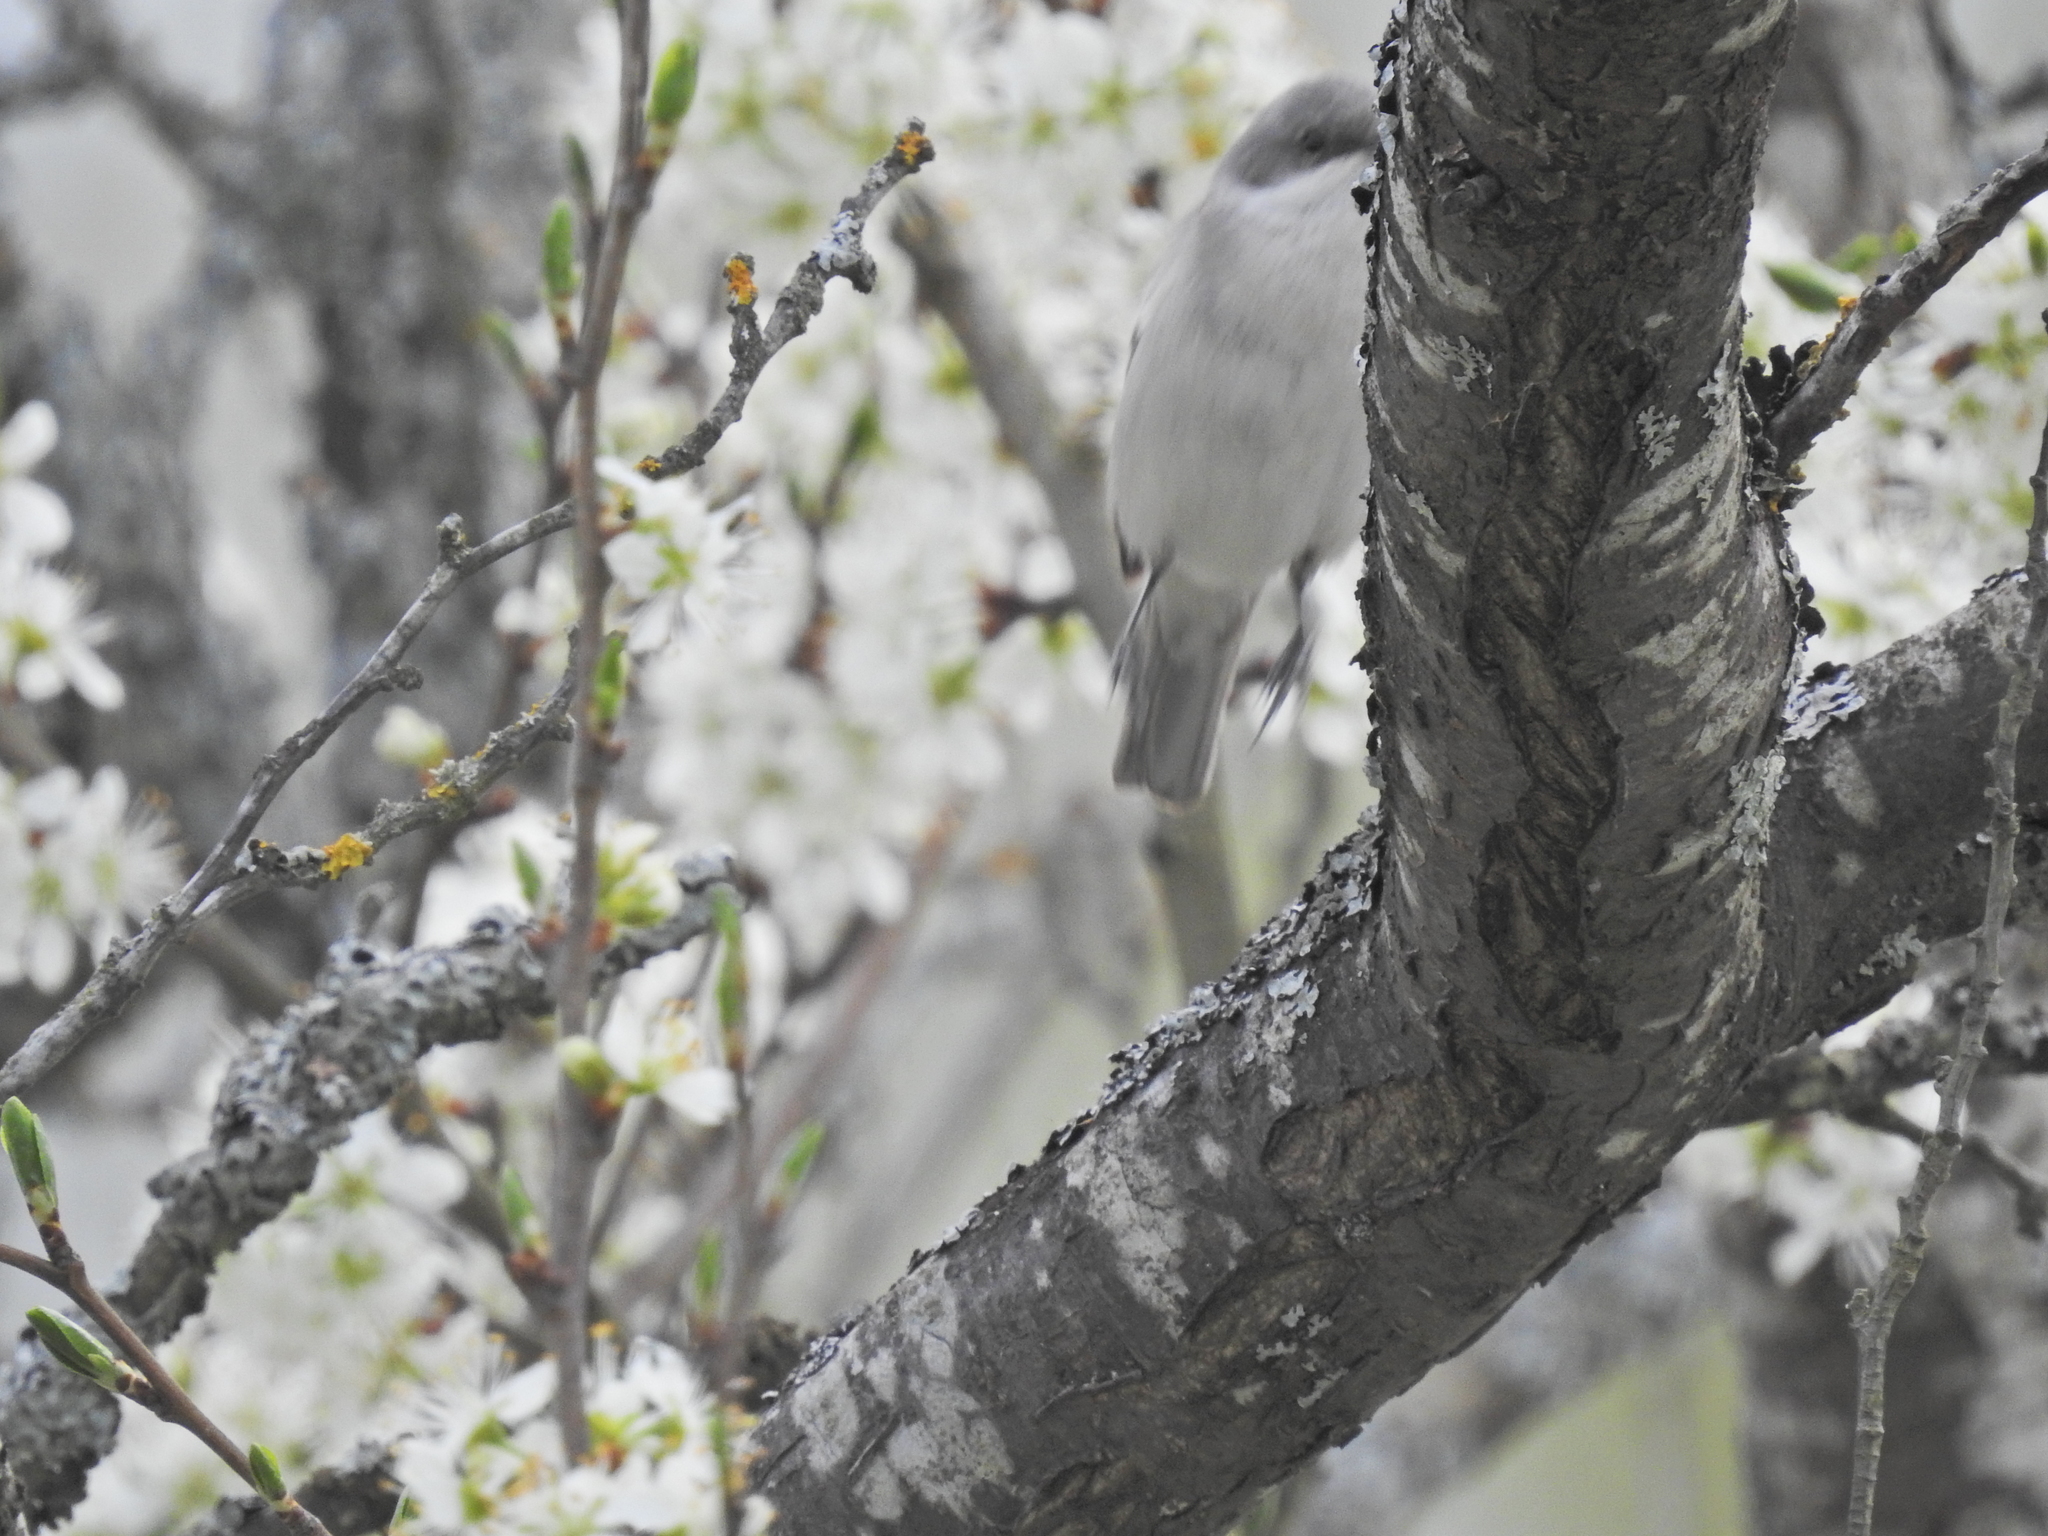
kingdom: Animalia
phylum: Chordata
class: Aves
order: Passeriformes
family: Sylviidae
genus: Sylvia
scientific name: Sylvia curruca
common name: Lesser whitethroat
